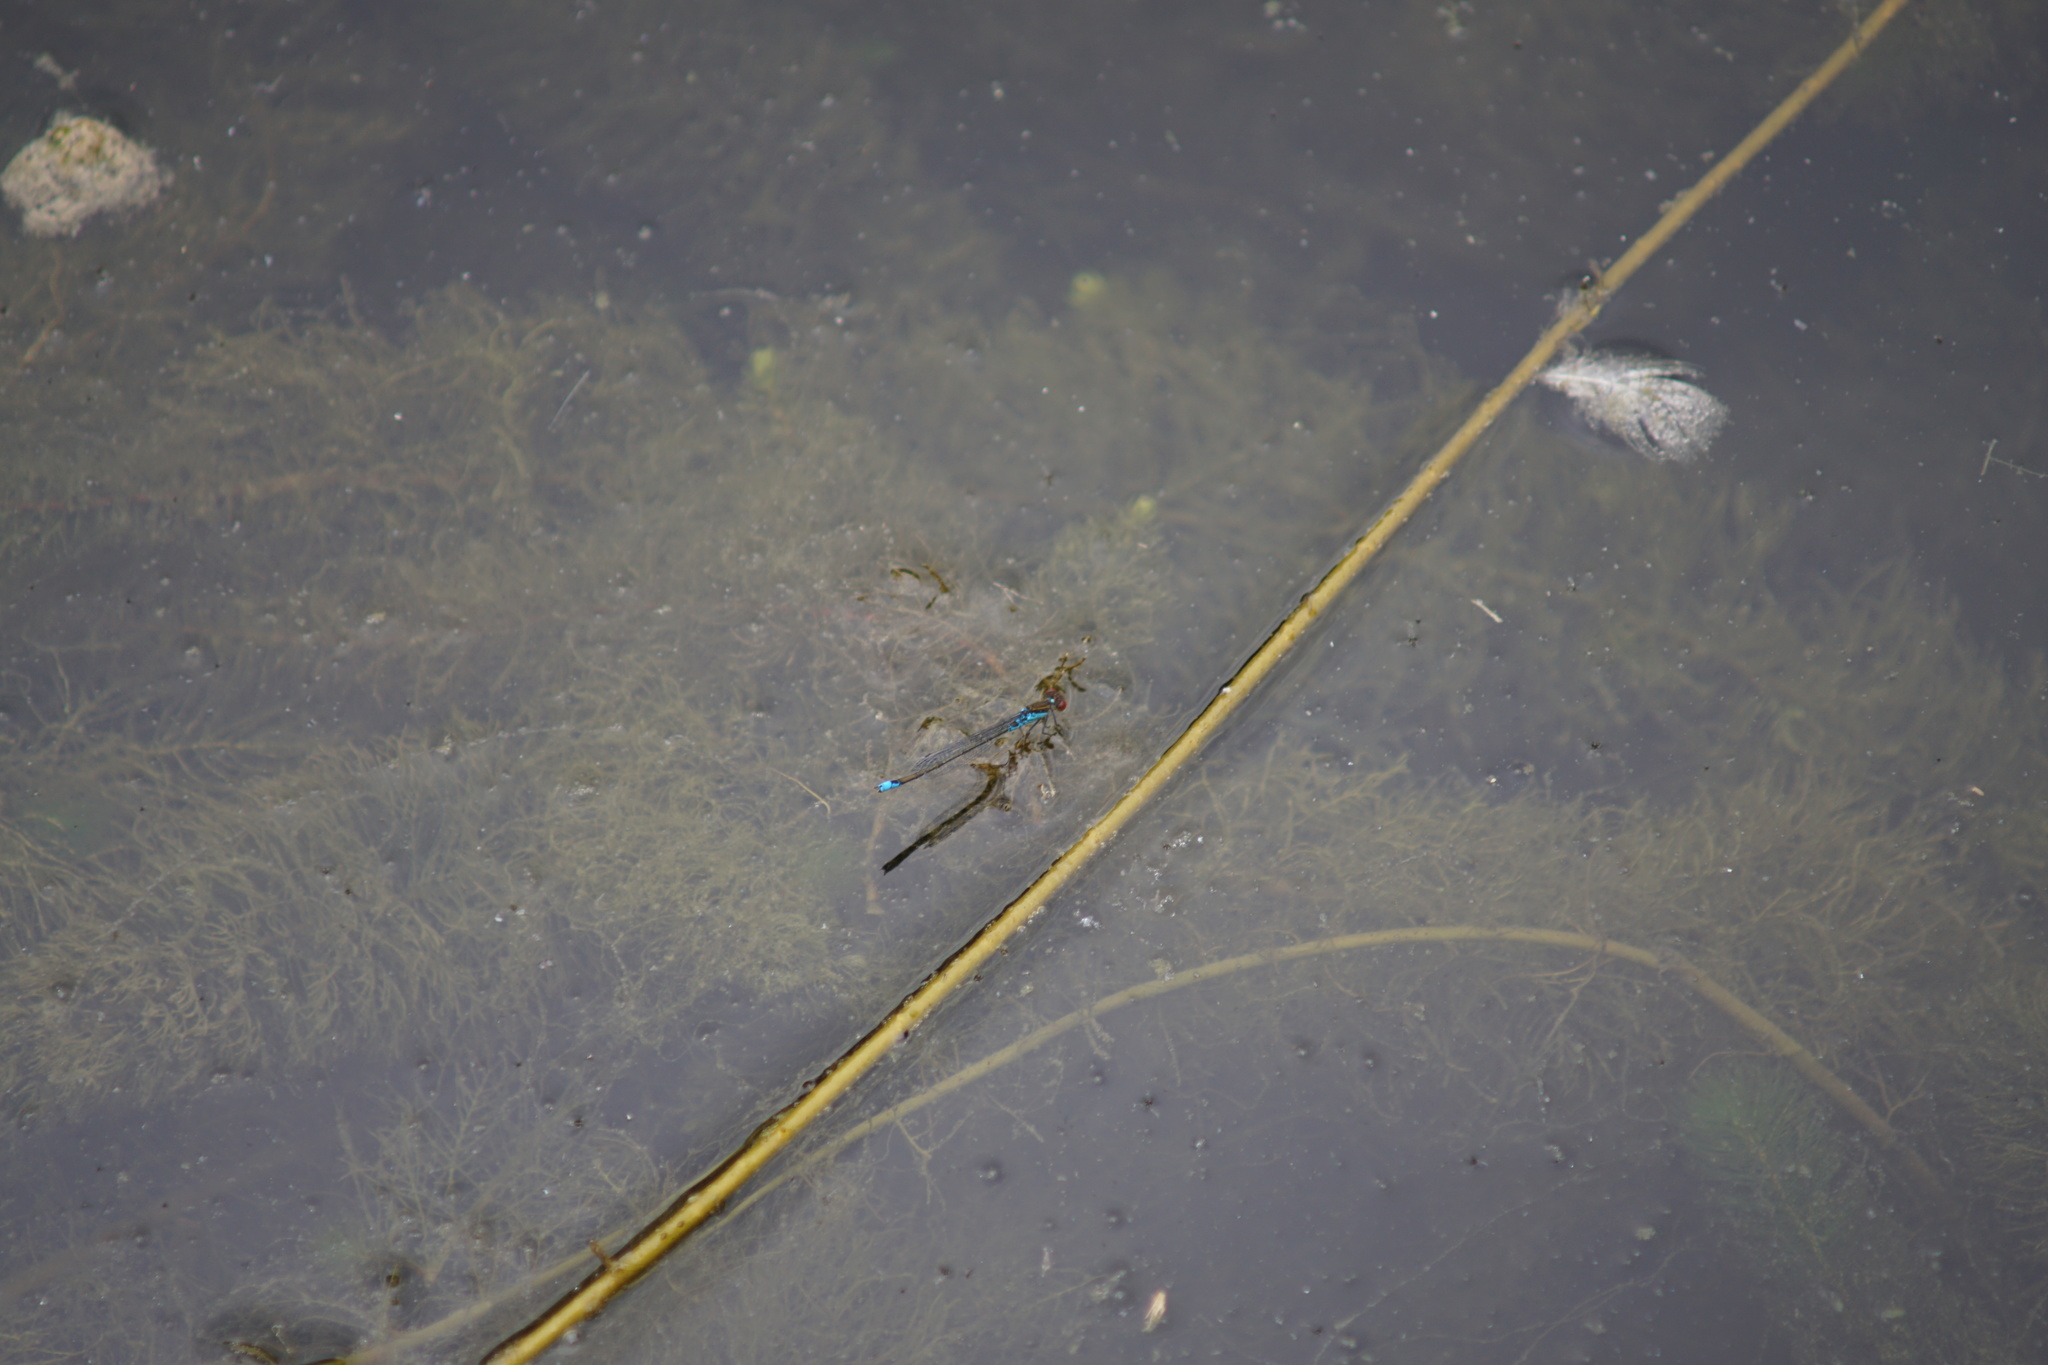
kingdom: Animalia
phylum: Arthropoda
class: Insecta
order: Odonata
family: Coenagrionidae
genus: Erythromma
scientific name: Erythromma viridulum
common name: Small red-eyed damselfly
